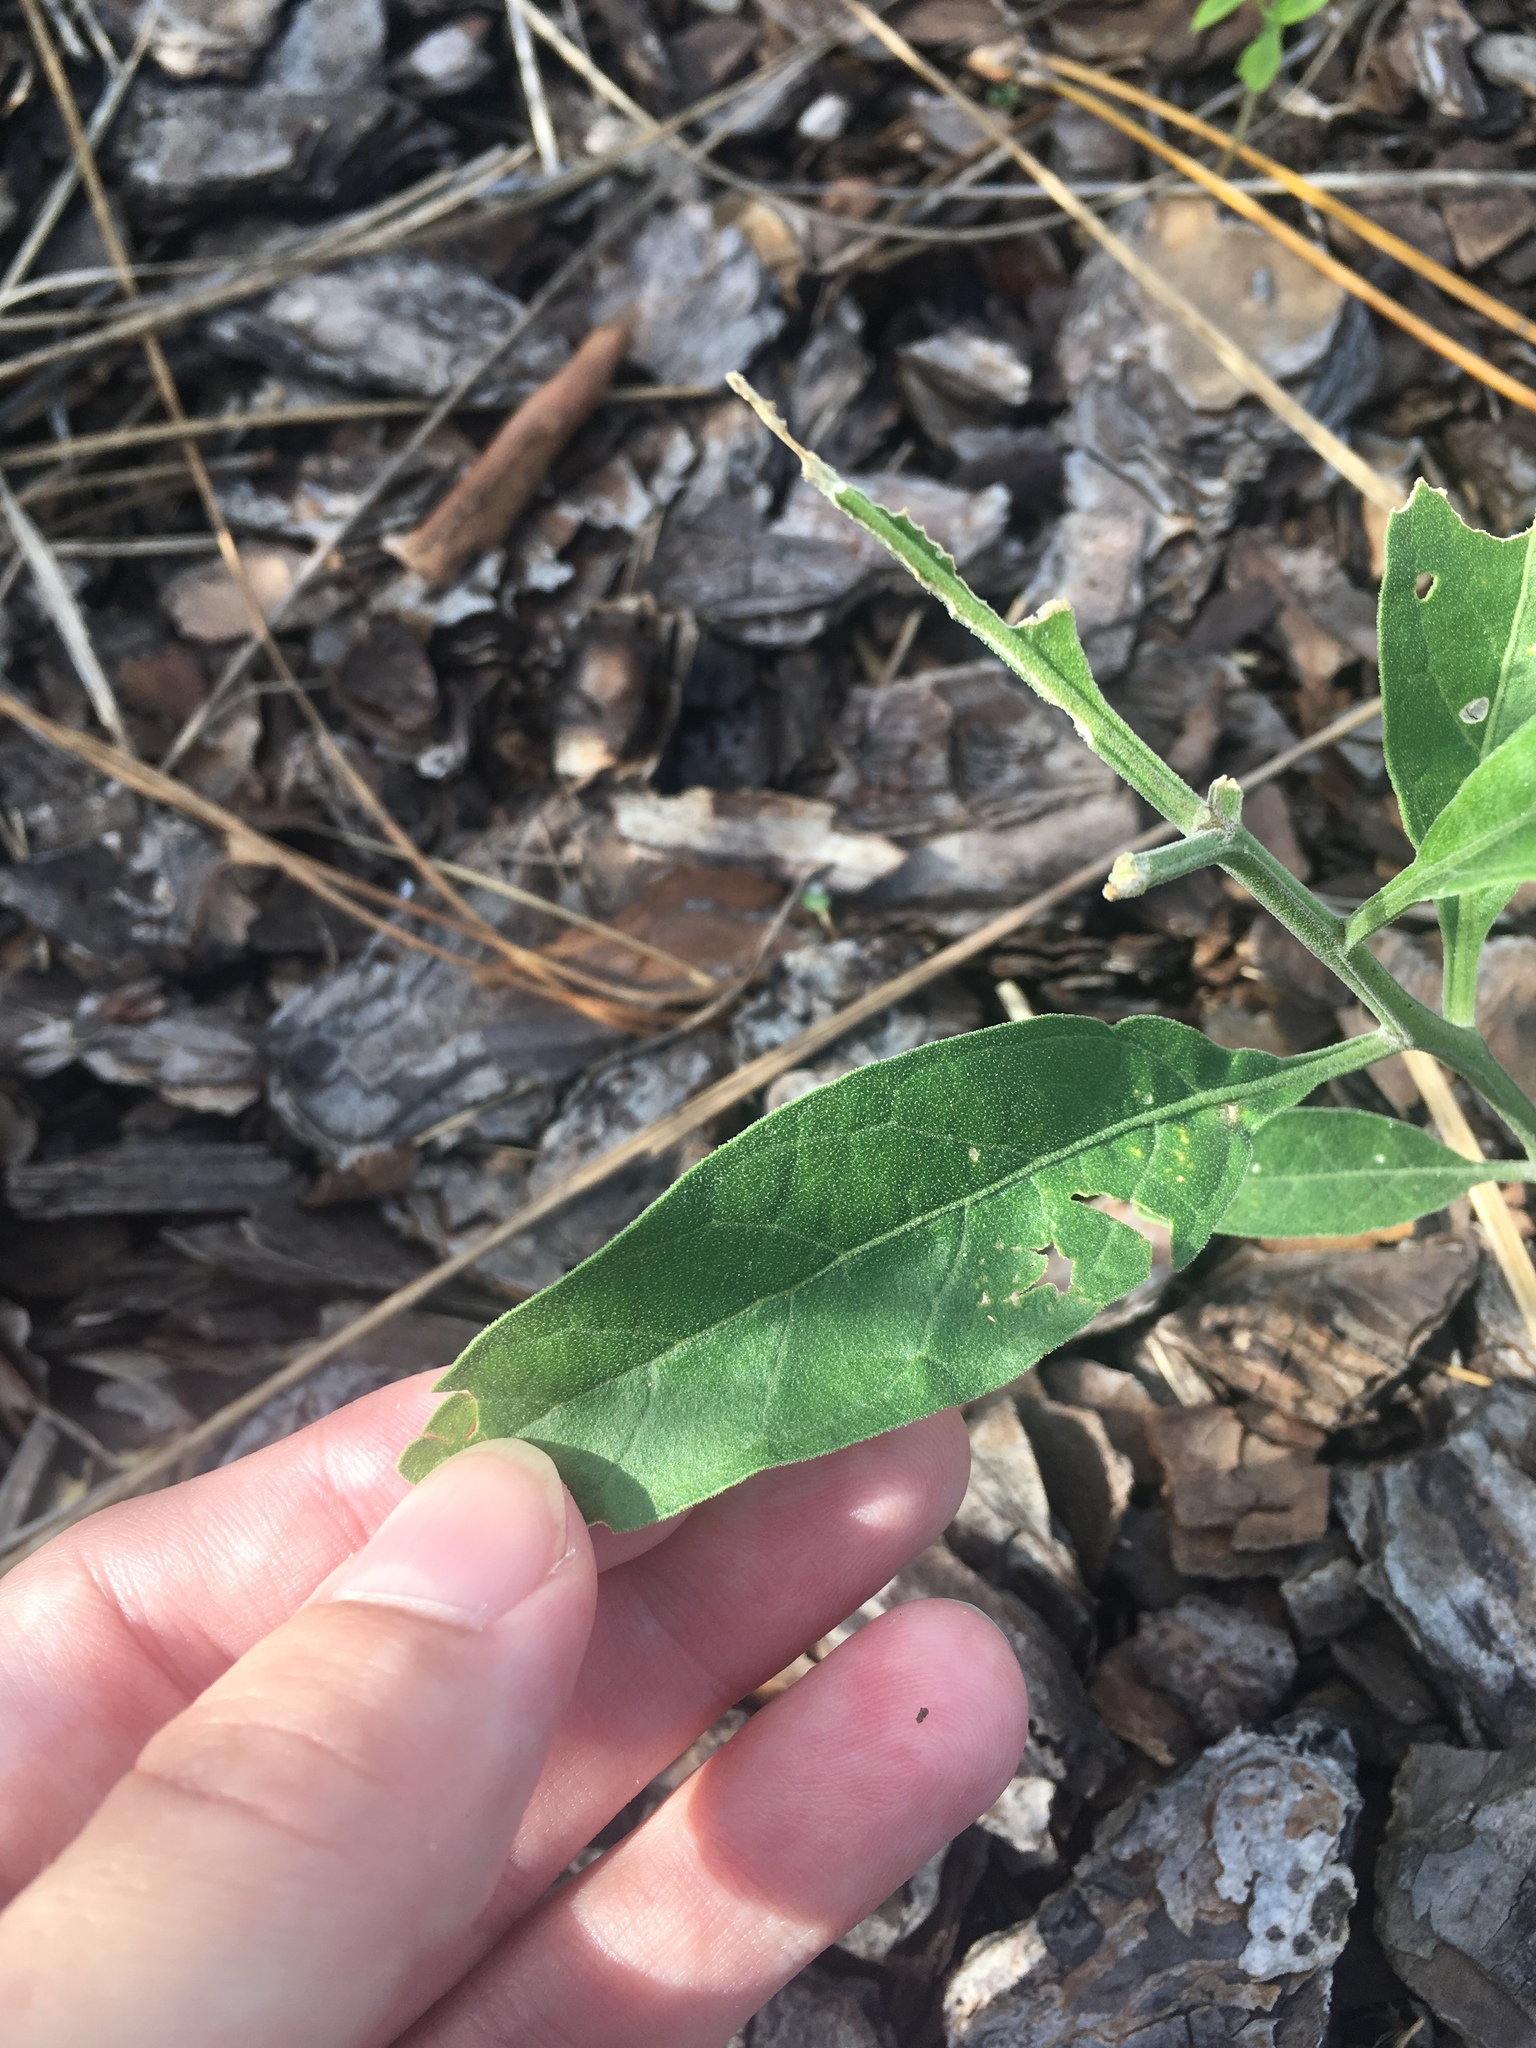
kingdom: Plantae
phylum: Tracheophyta
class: Magnoliopsida
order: Solanales
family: Solanaceae
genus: Physalis
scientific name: Physalis walteri
